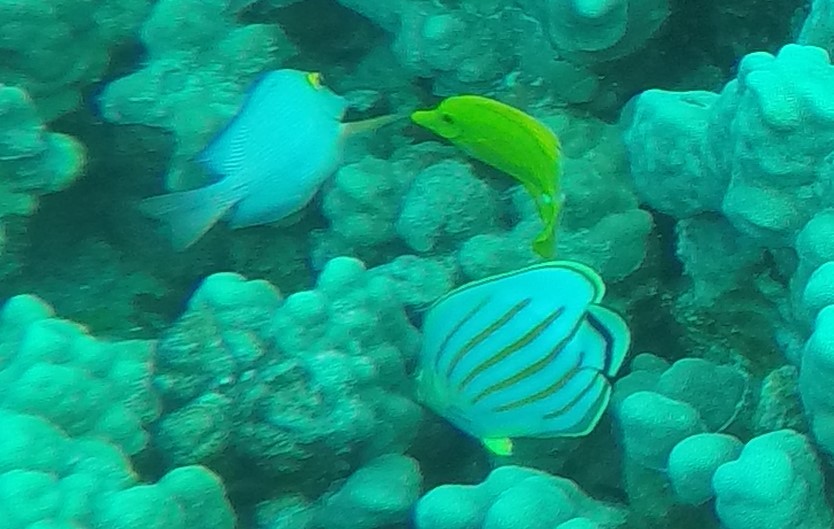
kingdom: Animalia
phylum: Chordata
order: Perciformes
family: Chaetodontidae
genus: Chaetodon
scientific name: Chaetodon ornatissimus
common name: Ornate butterflyfish
